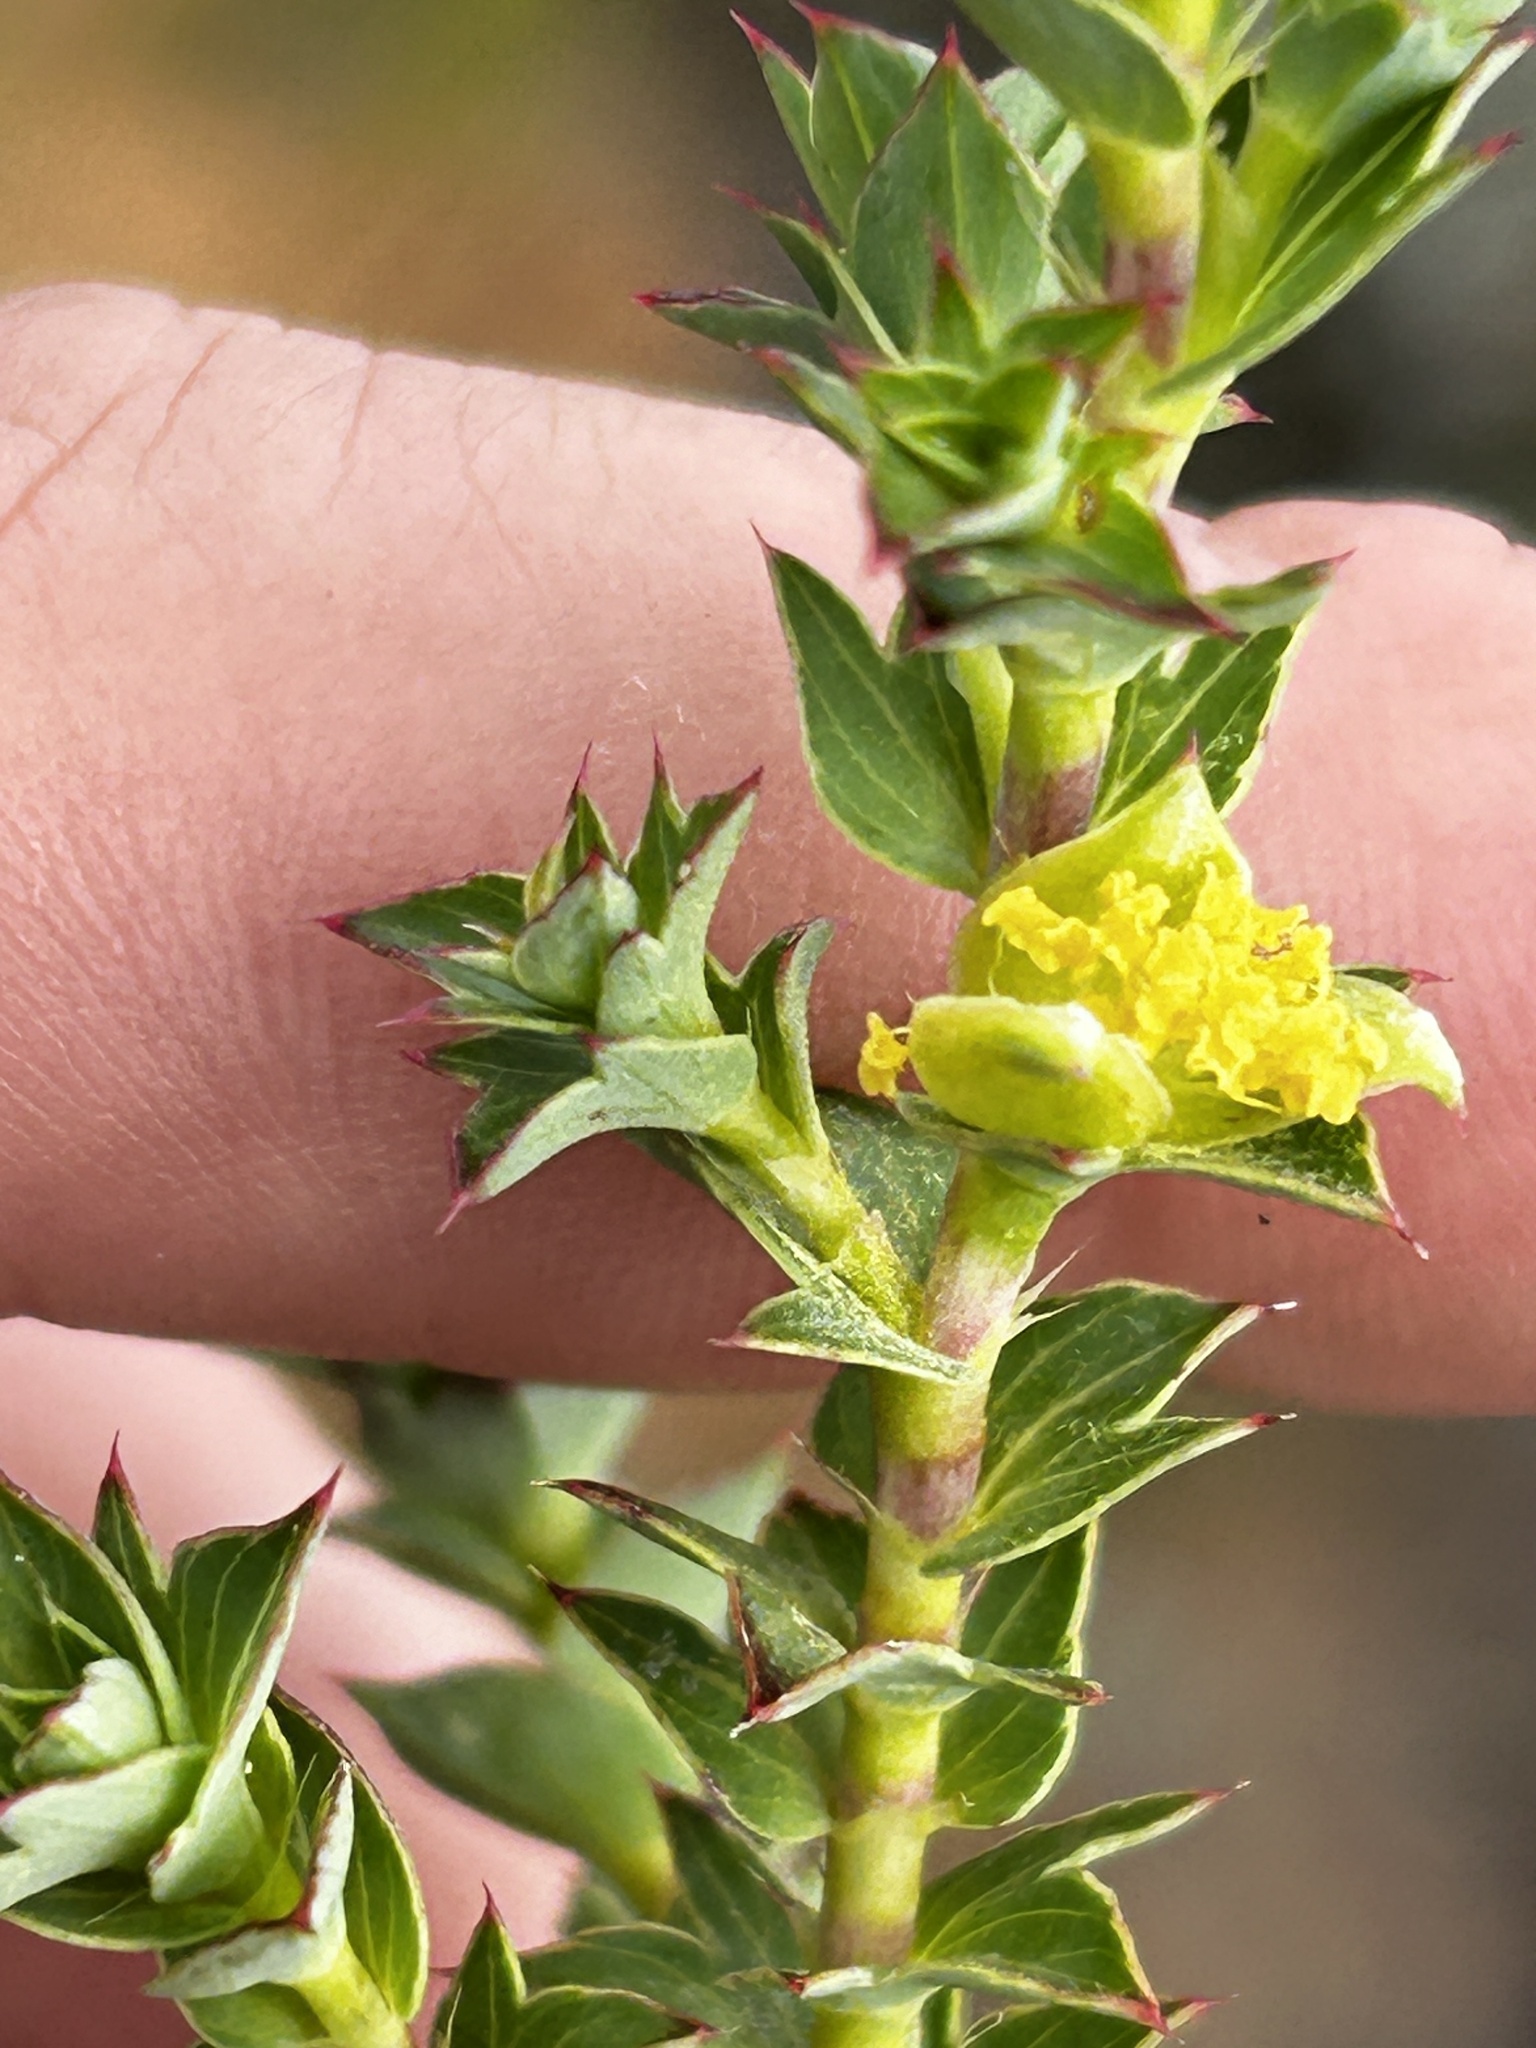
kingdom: Plantae
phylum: Tracheophyta
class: Magnoliopsida
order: Rosales
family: Rosaceae
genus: Cliffortia
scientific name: Cliffortia schlechteri
